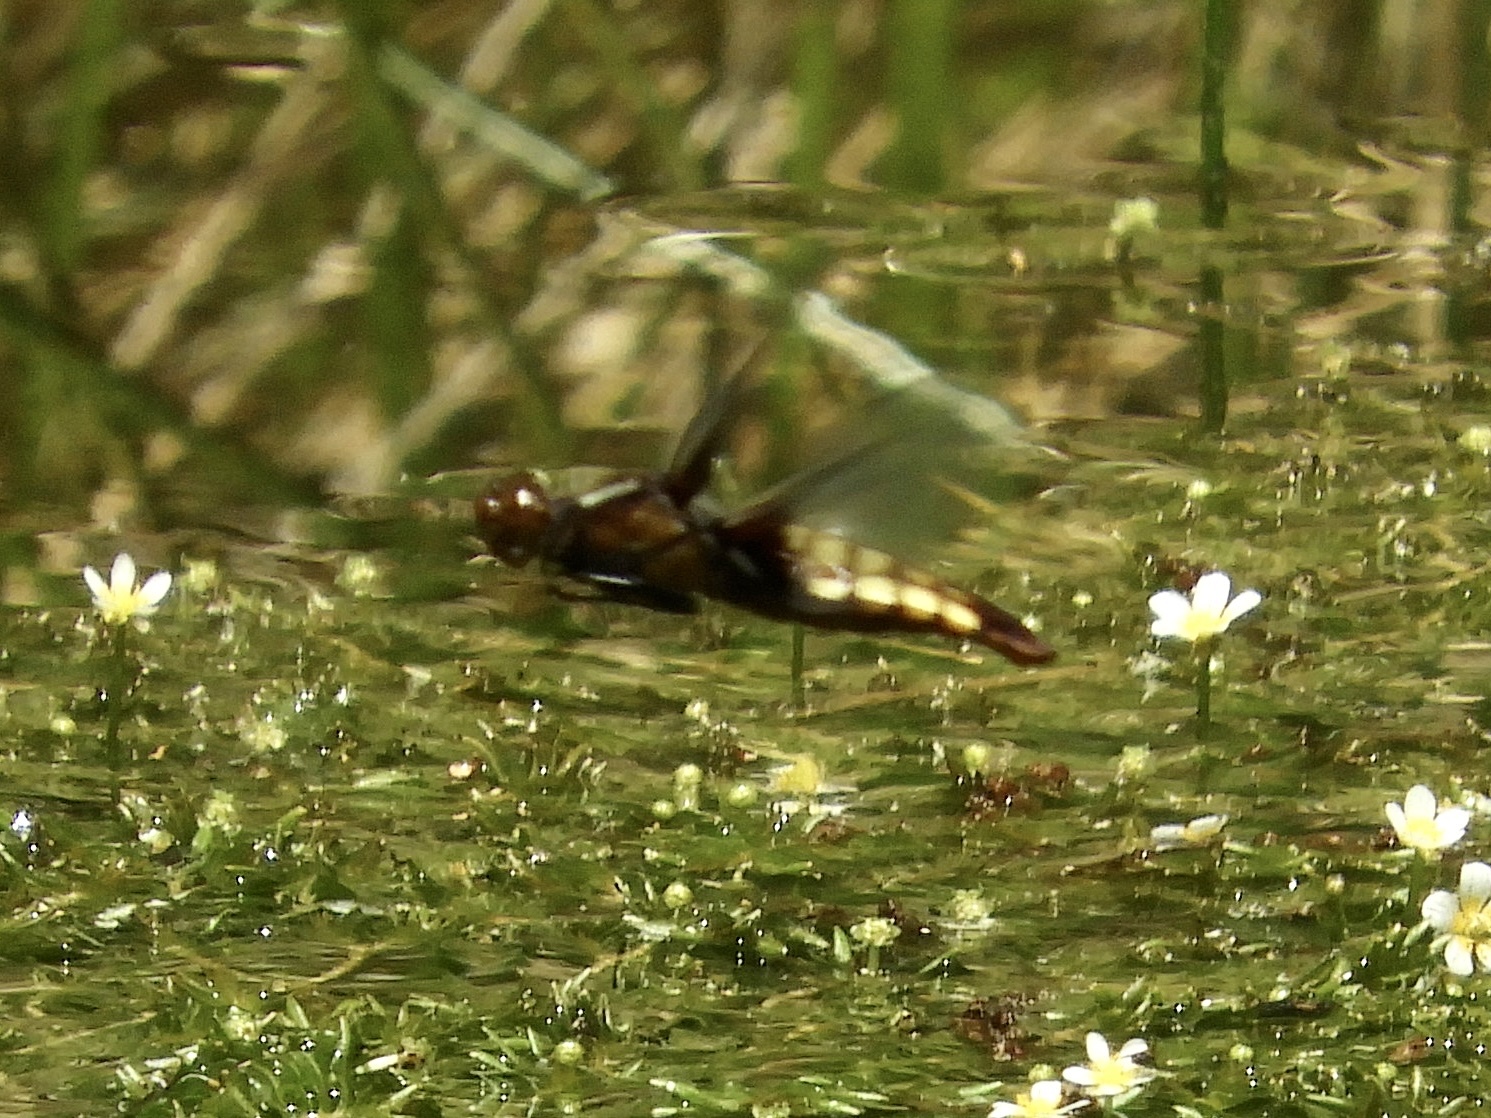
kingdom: Animalia
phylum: Arthropoda
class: Insecta
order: Odonata
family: Libellulidae
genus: Libellula
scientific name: Libellula depressa
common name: Broad-bodied chaser
